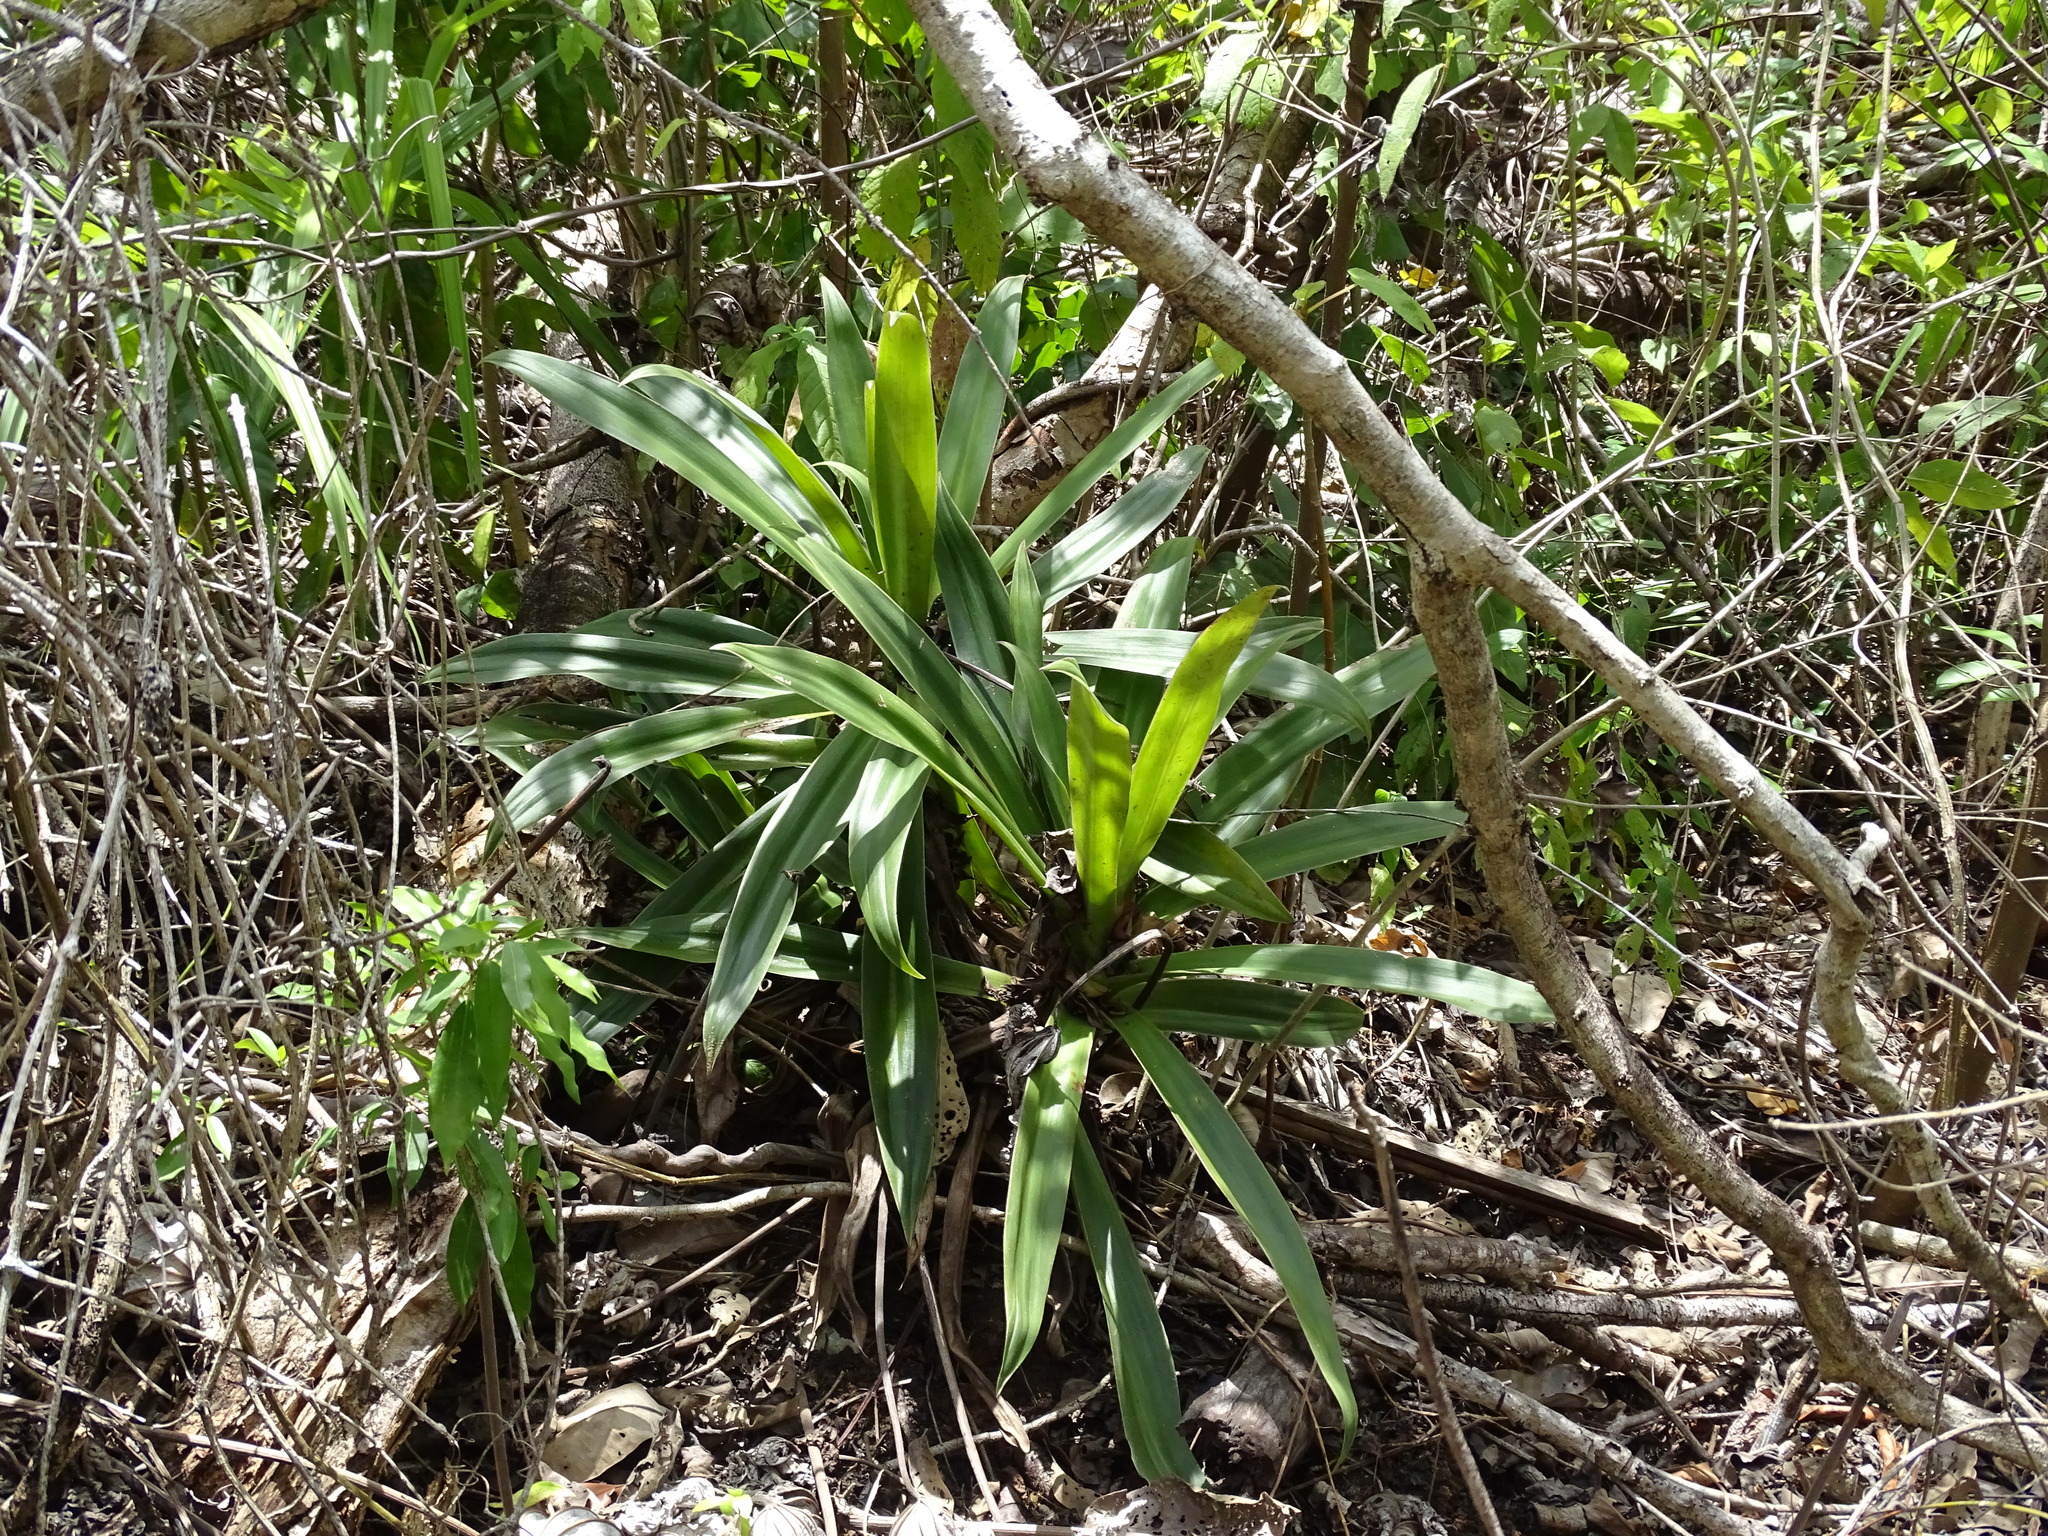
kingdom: Plantae
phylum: Tracheophyta
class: Liliopsida
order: Commelinales
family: Commelinaceae
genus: Tradescantia
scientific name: Tradescantia spathacea
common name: Boatlily
